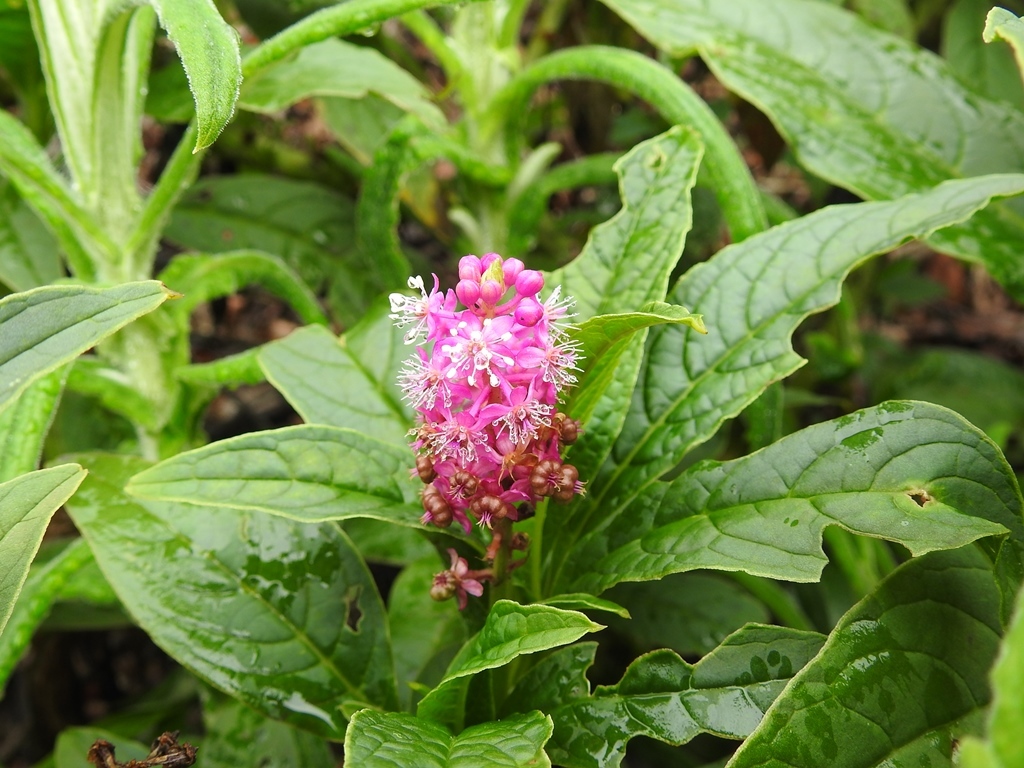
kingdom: Plantae
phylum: Tracheophyta
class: Magnoliopsida
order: Caryophyllales
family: Phytolaccaceae
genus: Phytolacca
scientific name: Phytolacca icosandra
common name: Button pokeweed
